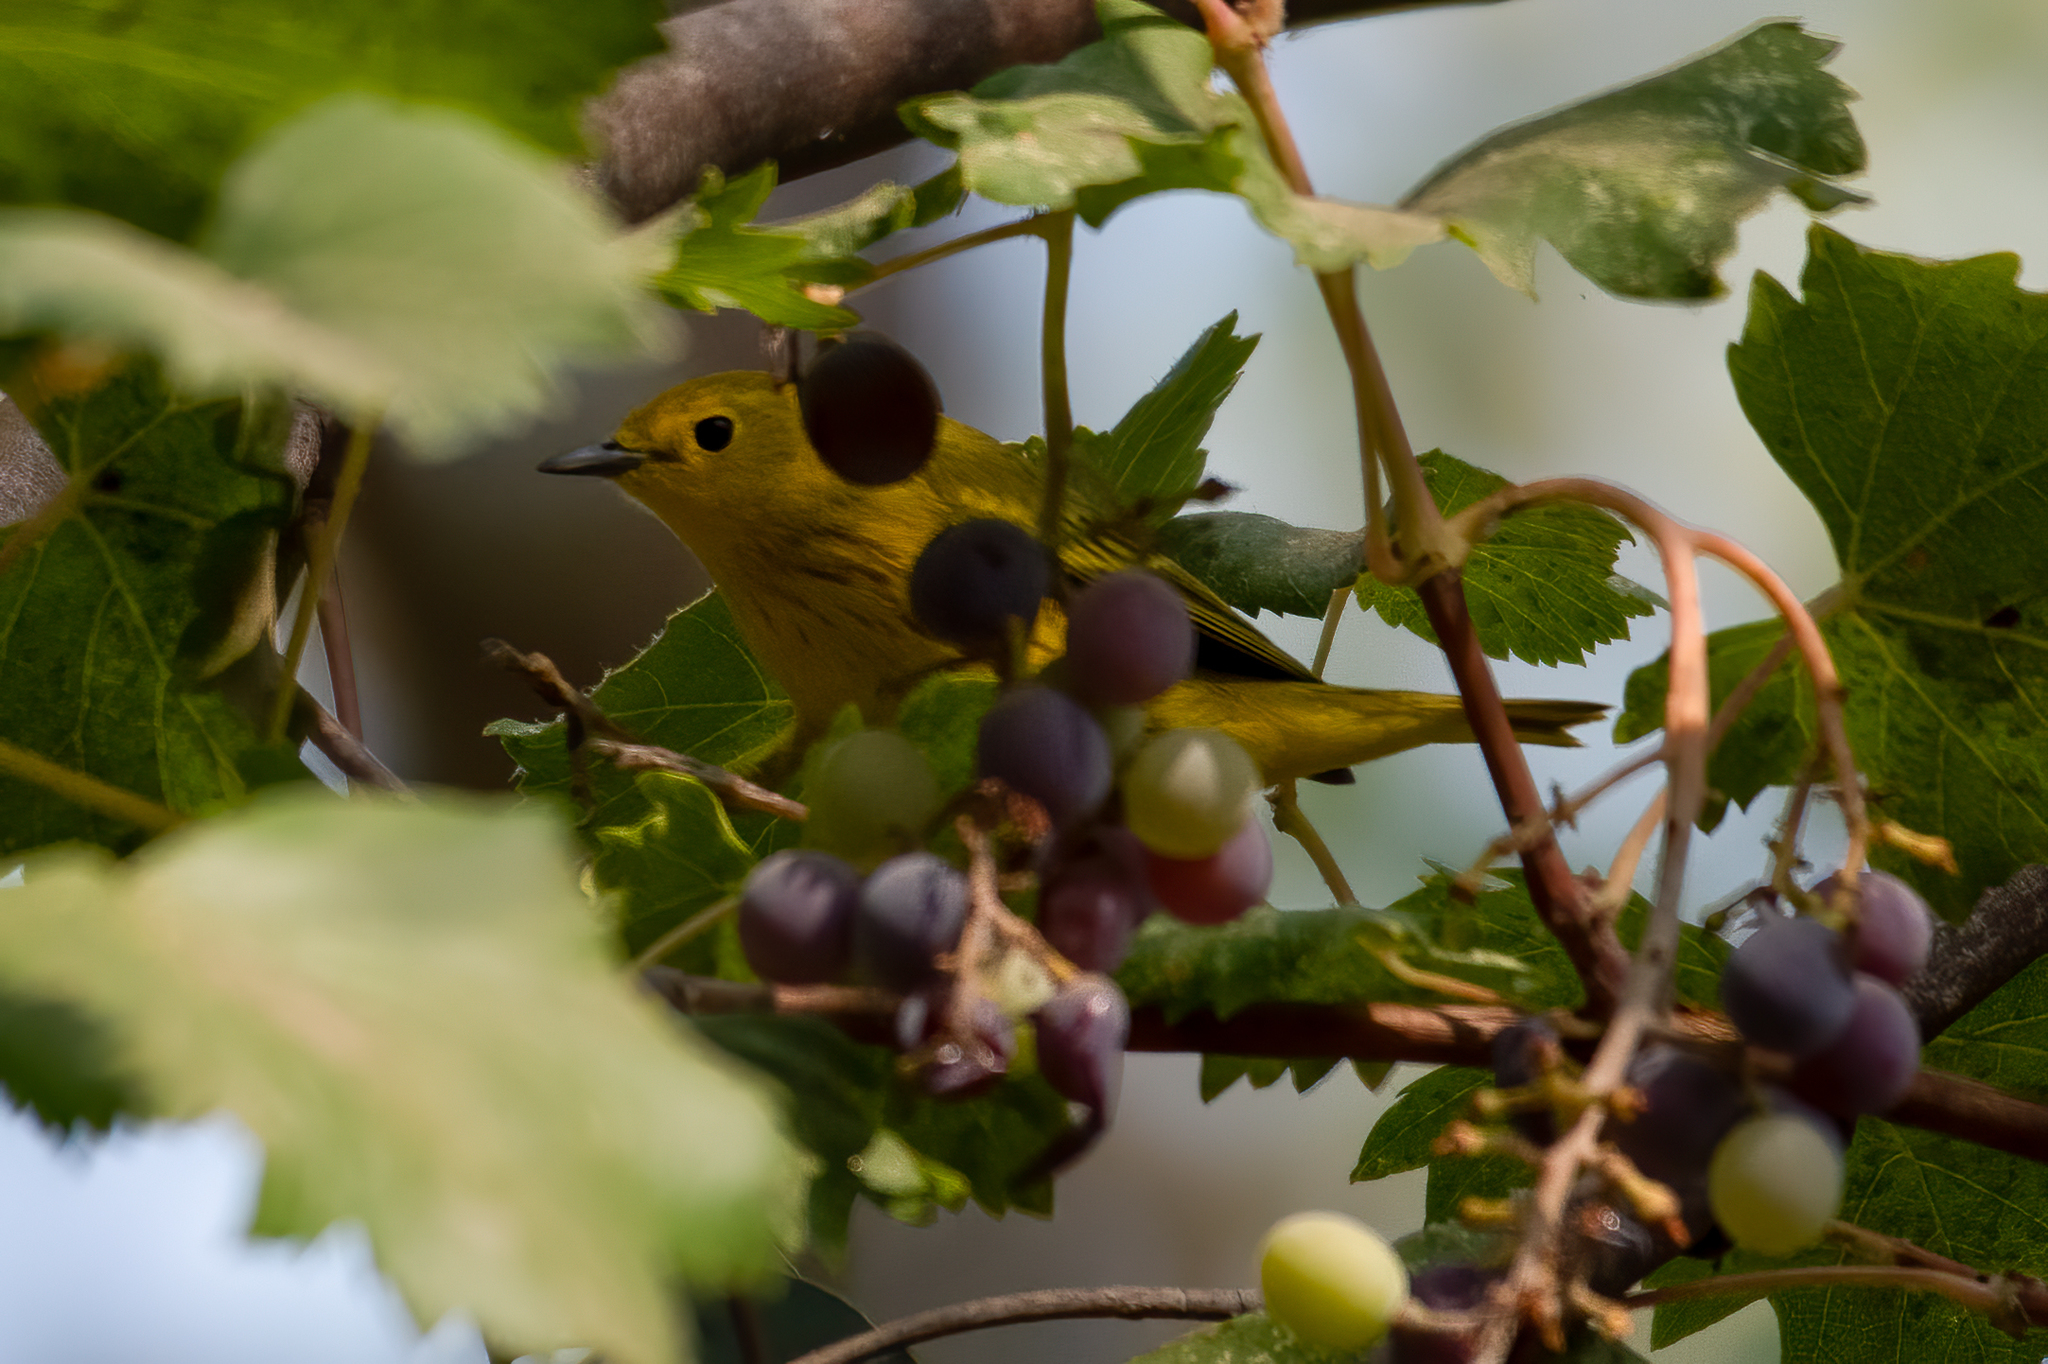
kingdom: Animalia
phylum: Chordata
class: Aves
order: Passeriformes
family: Parulidae
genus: Setophaga
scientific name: Setophaga petechia
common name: Yellow warbler
